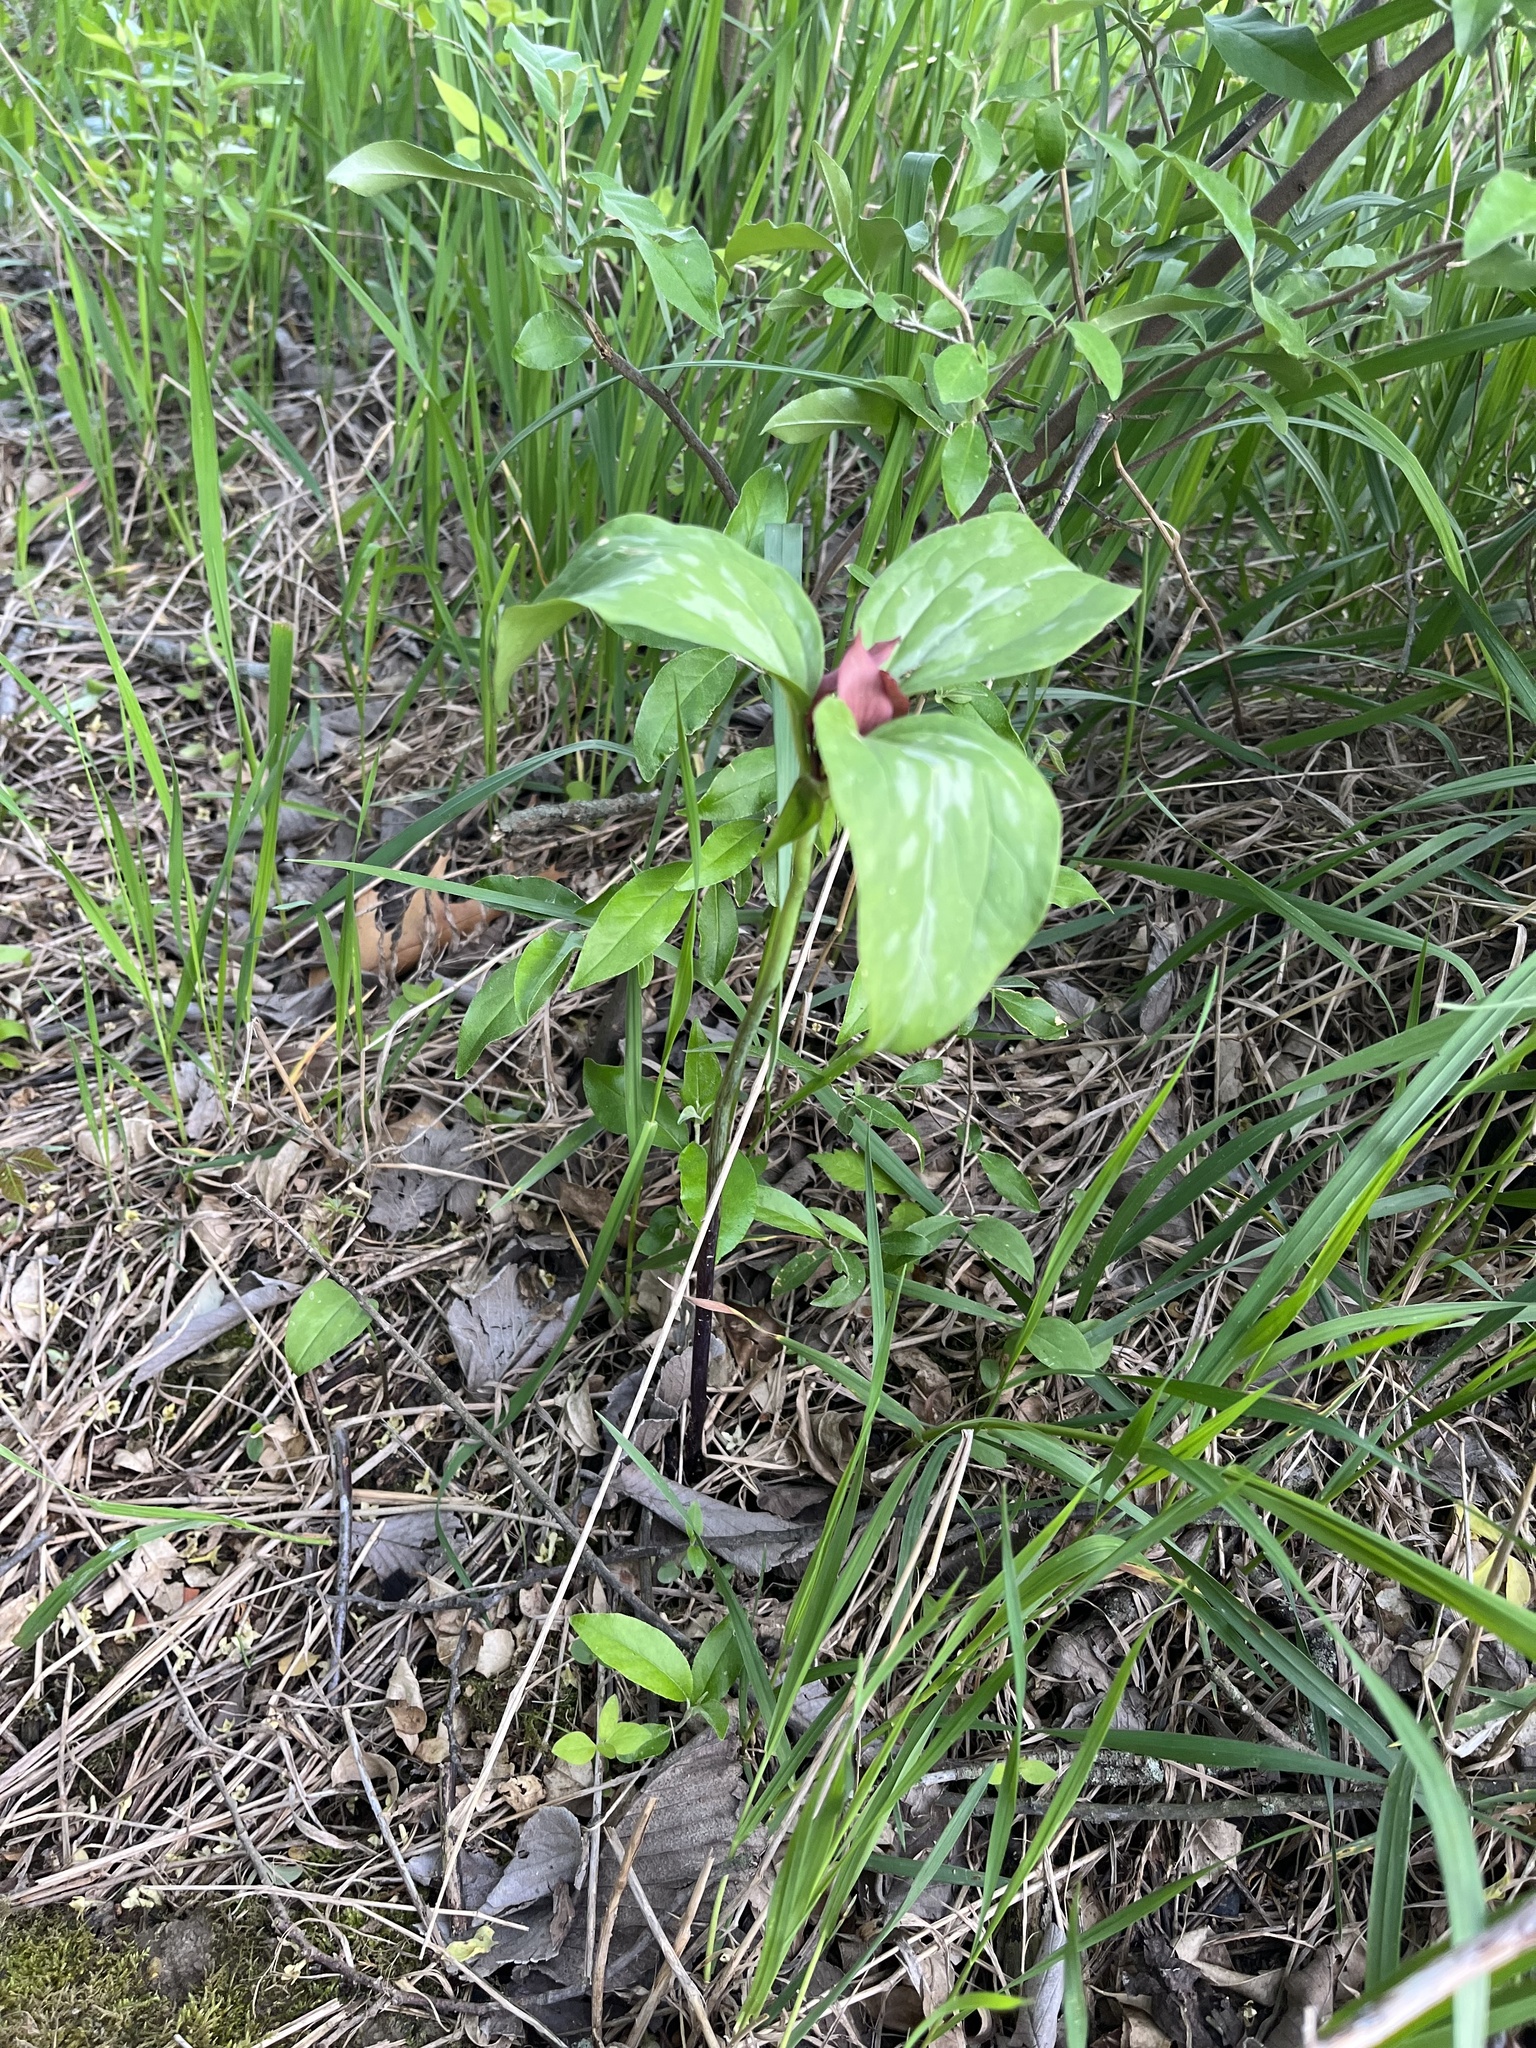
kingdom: Plantae
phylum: Tracheophyta
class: Liliopsida
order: Liliales
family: Melanthiaceae
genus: Trillium
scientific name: Trillium recurvatum
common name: Bloody butcher
